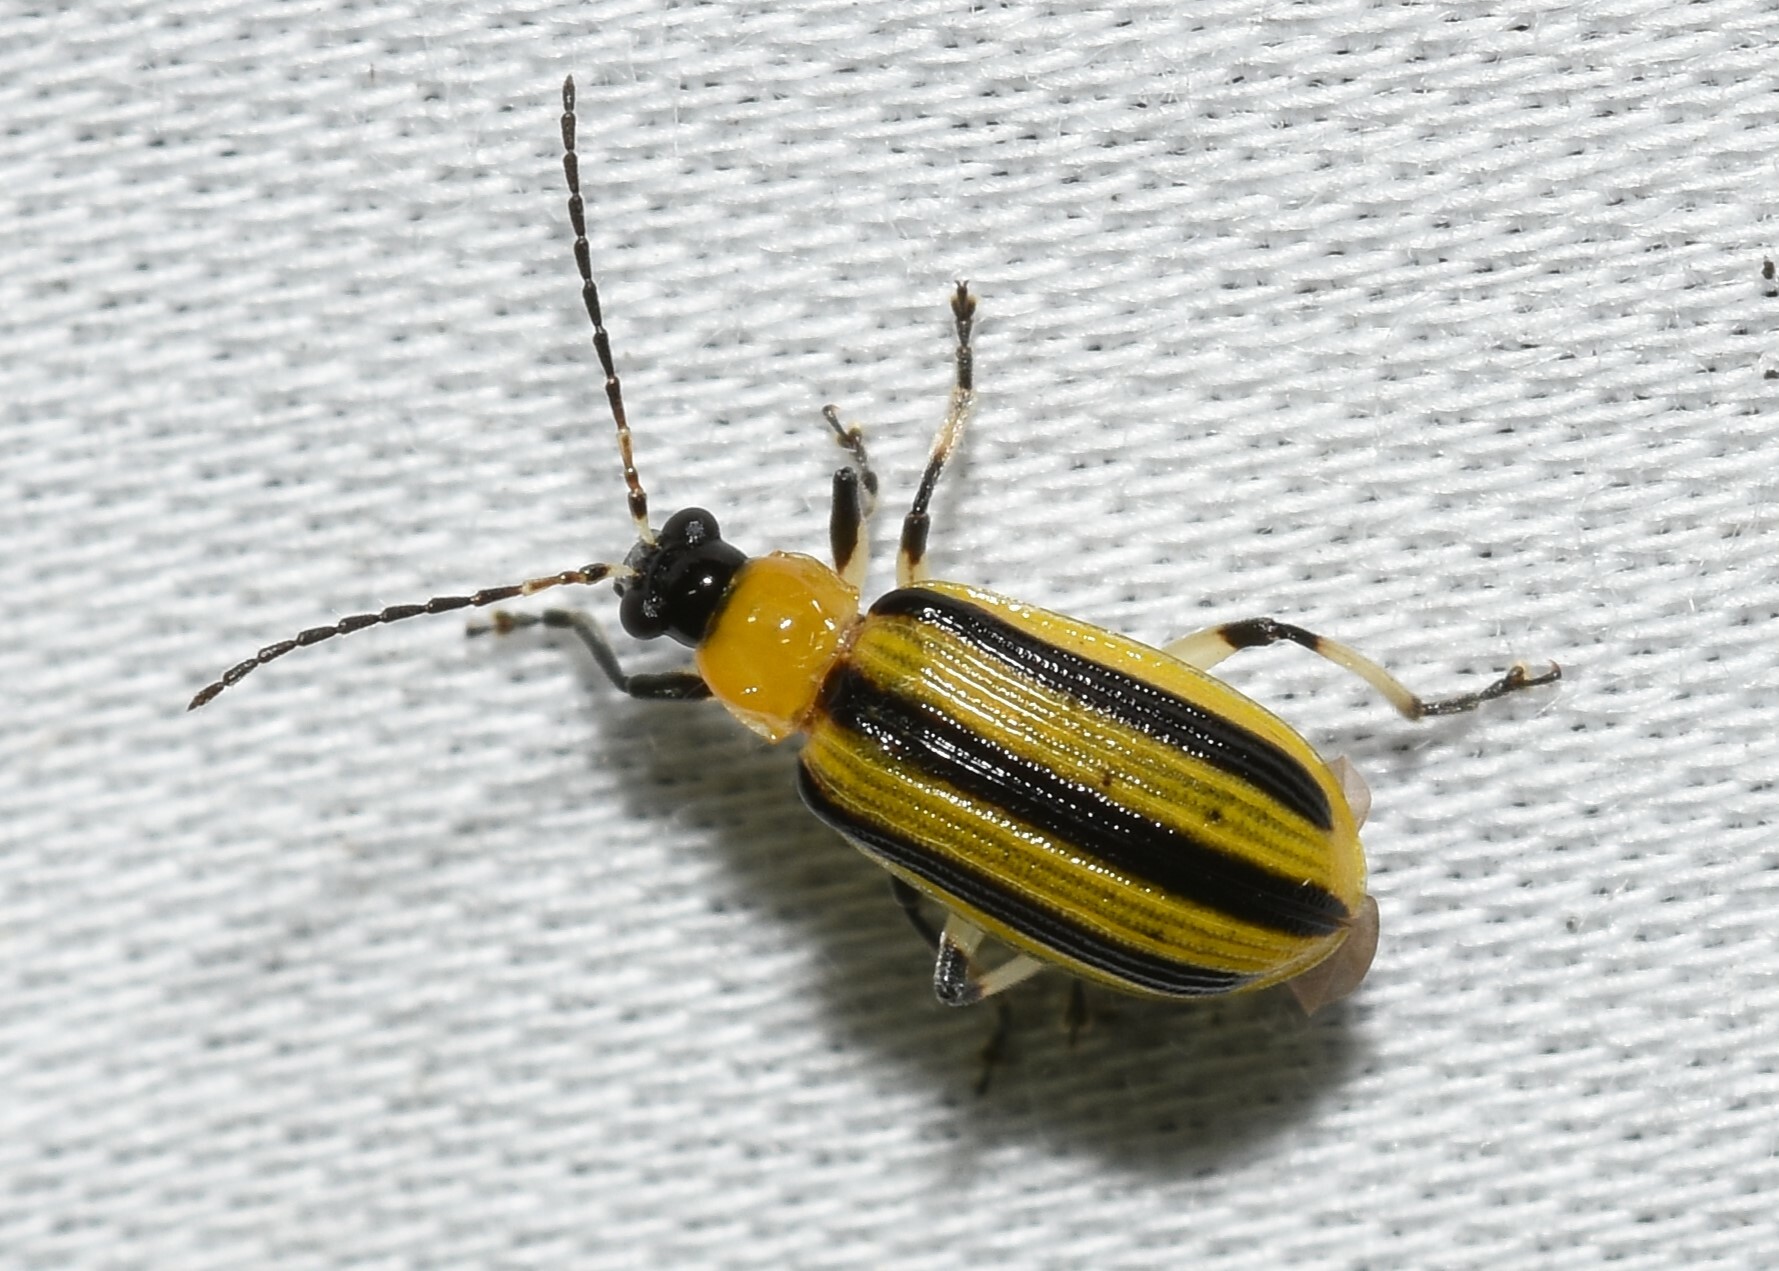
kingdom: Animalia
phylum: Arthropoda
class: Insecta
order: Coleoptera
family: Chrysomelidae
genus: Acalymma
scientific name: Acalymma vittatum
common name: Striped cucumber beetle
